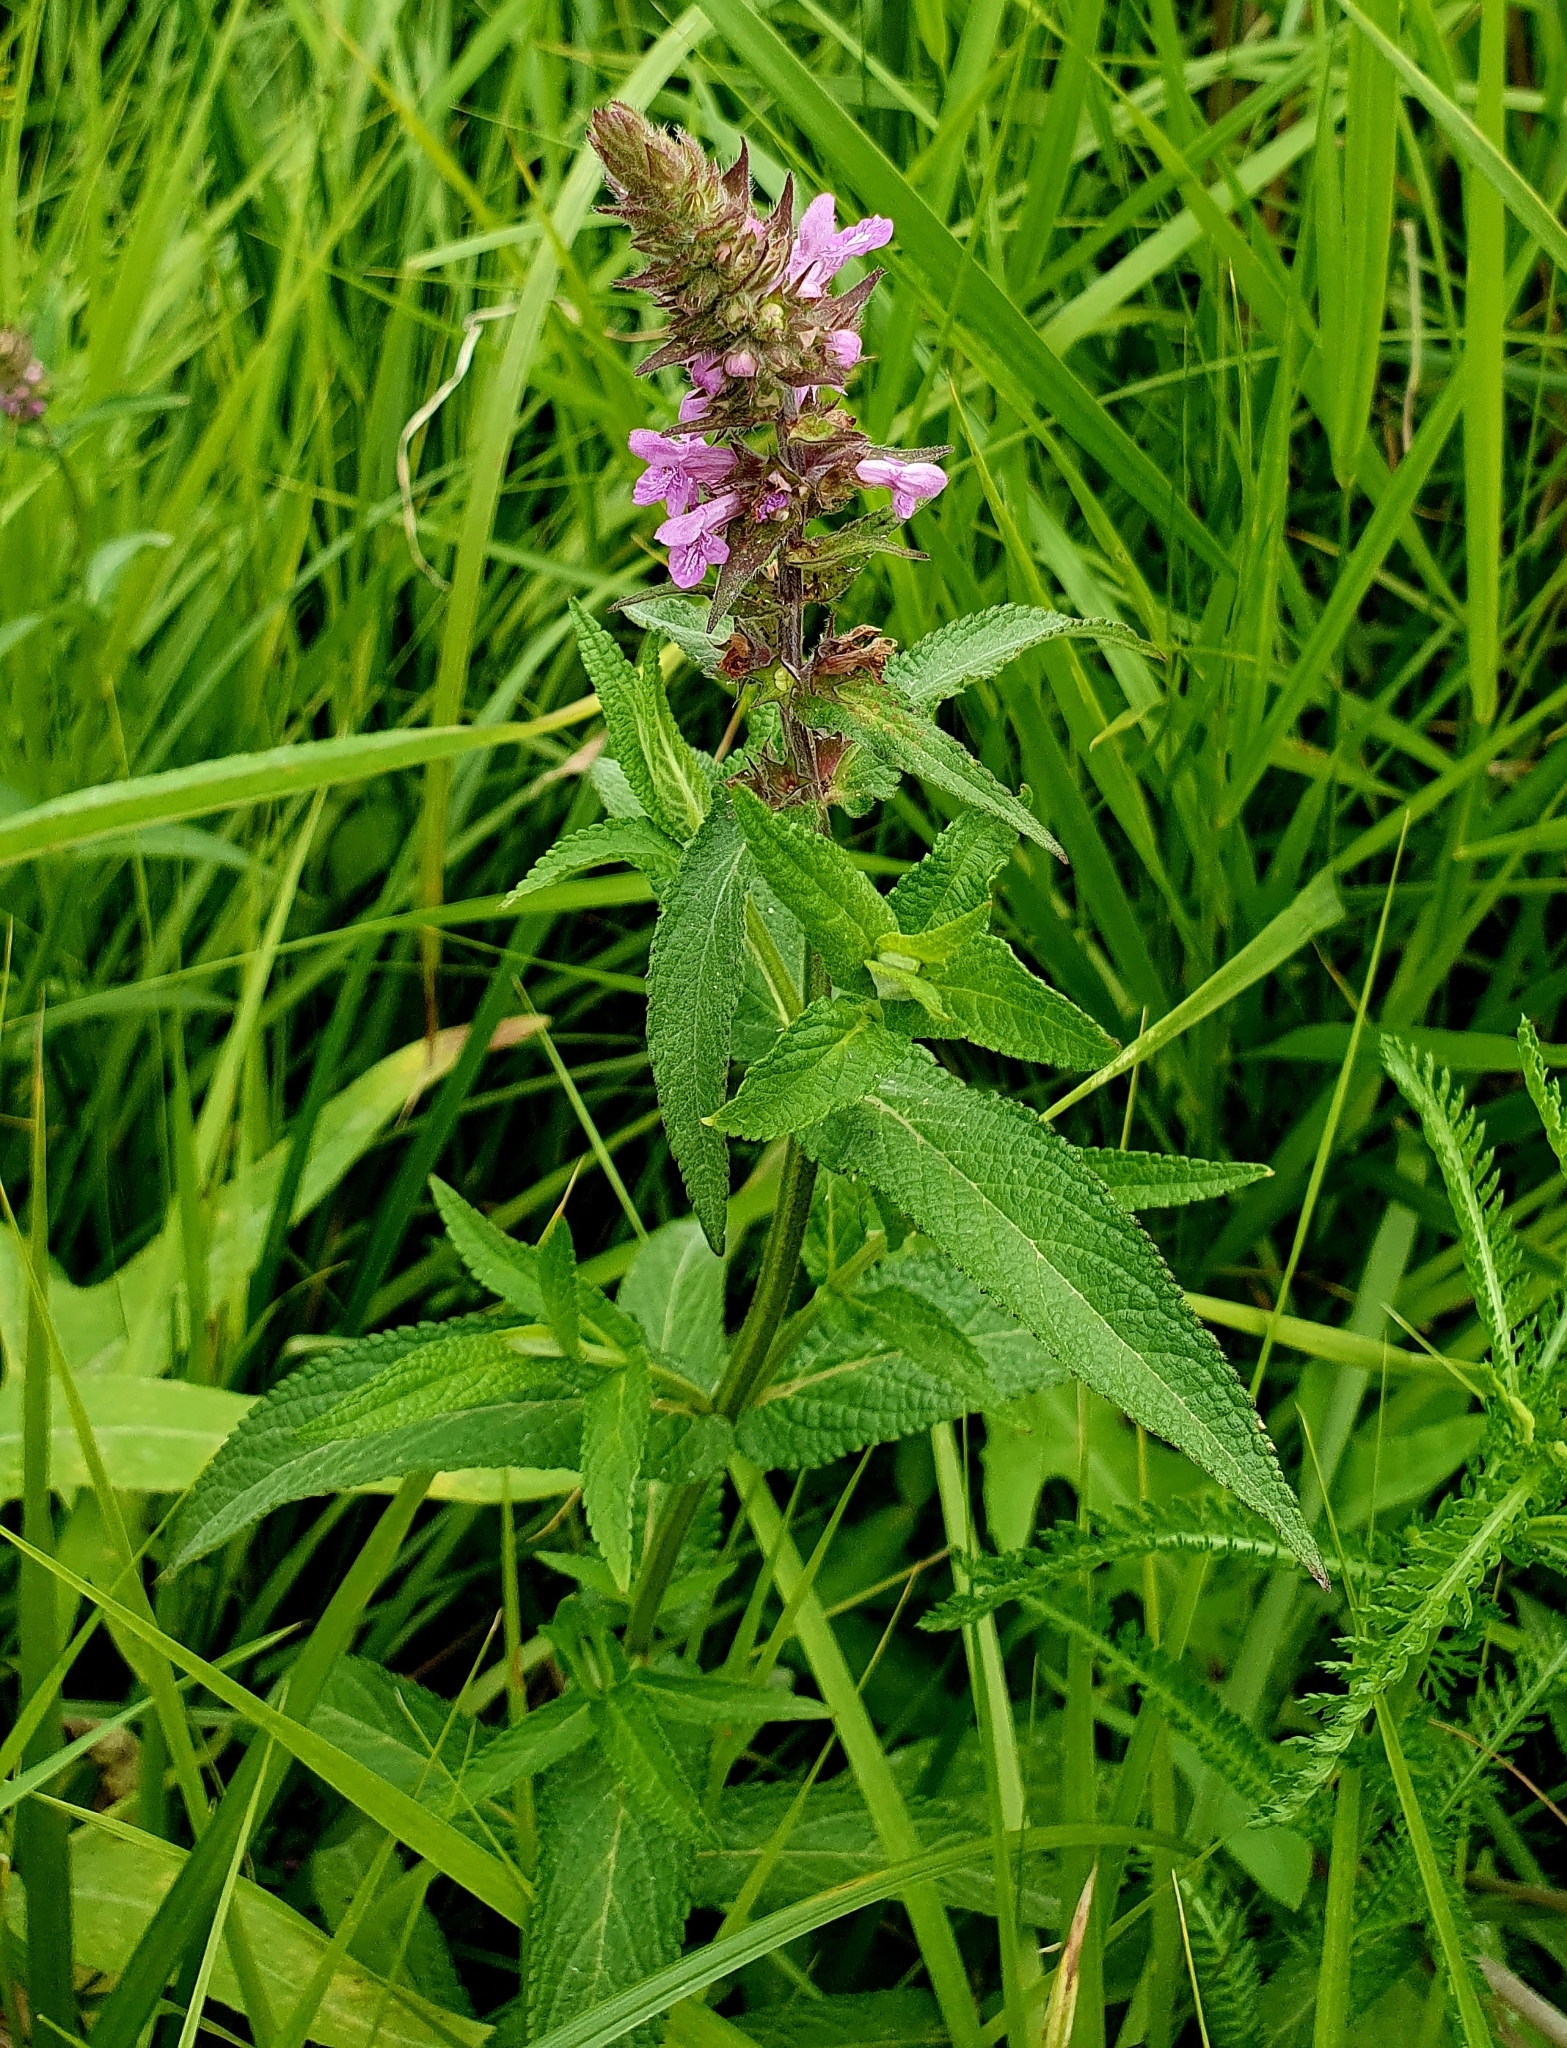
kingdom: Plantae
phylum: Tracheophyta
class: Magnoliopsida
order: Lamiales
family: Lamiaceae
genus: Stachys
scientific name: Stachys palustris
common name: Marsh woundwort
